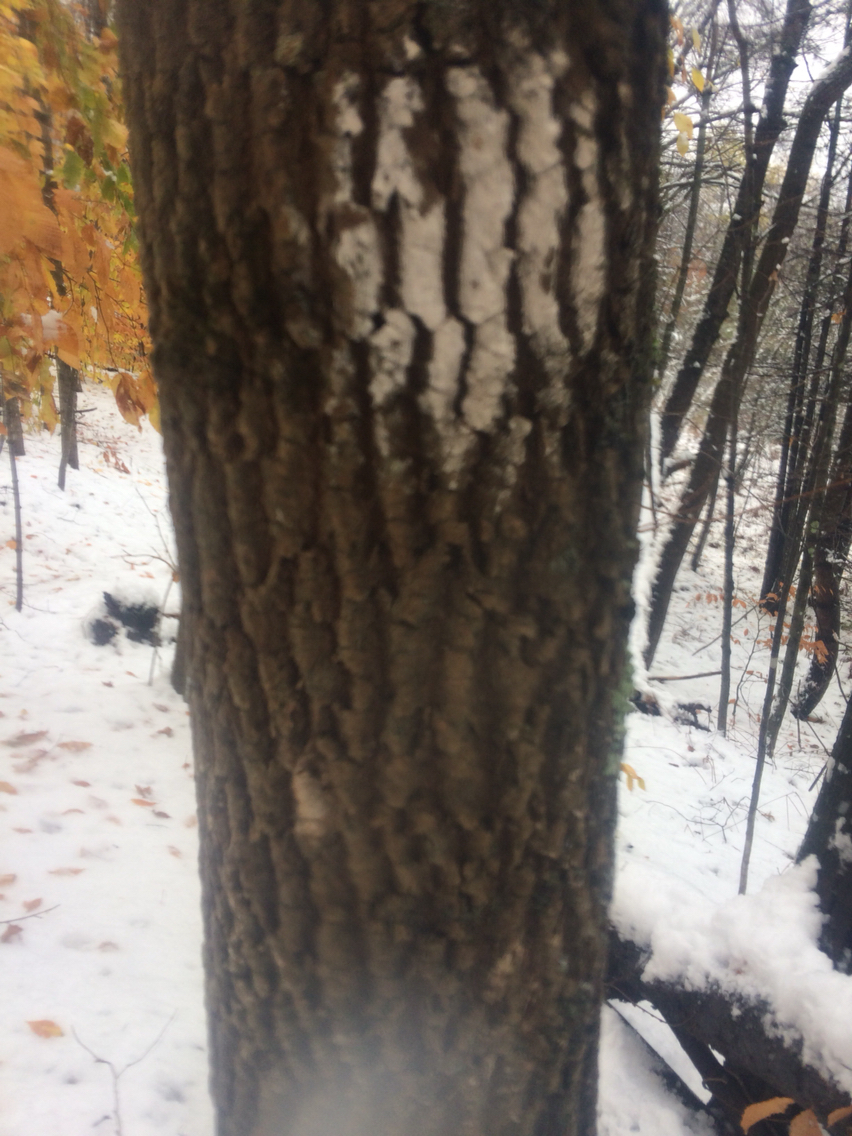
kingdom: Plantae
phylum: Tracheophyta
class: Magnoliopsida
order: Lamiales
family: Oleaceae
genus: Fraxinus
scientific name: Fraxinus americana
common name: White ash
